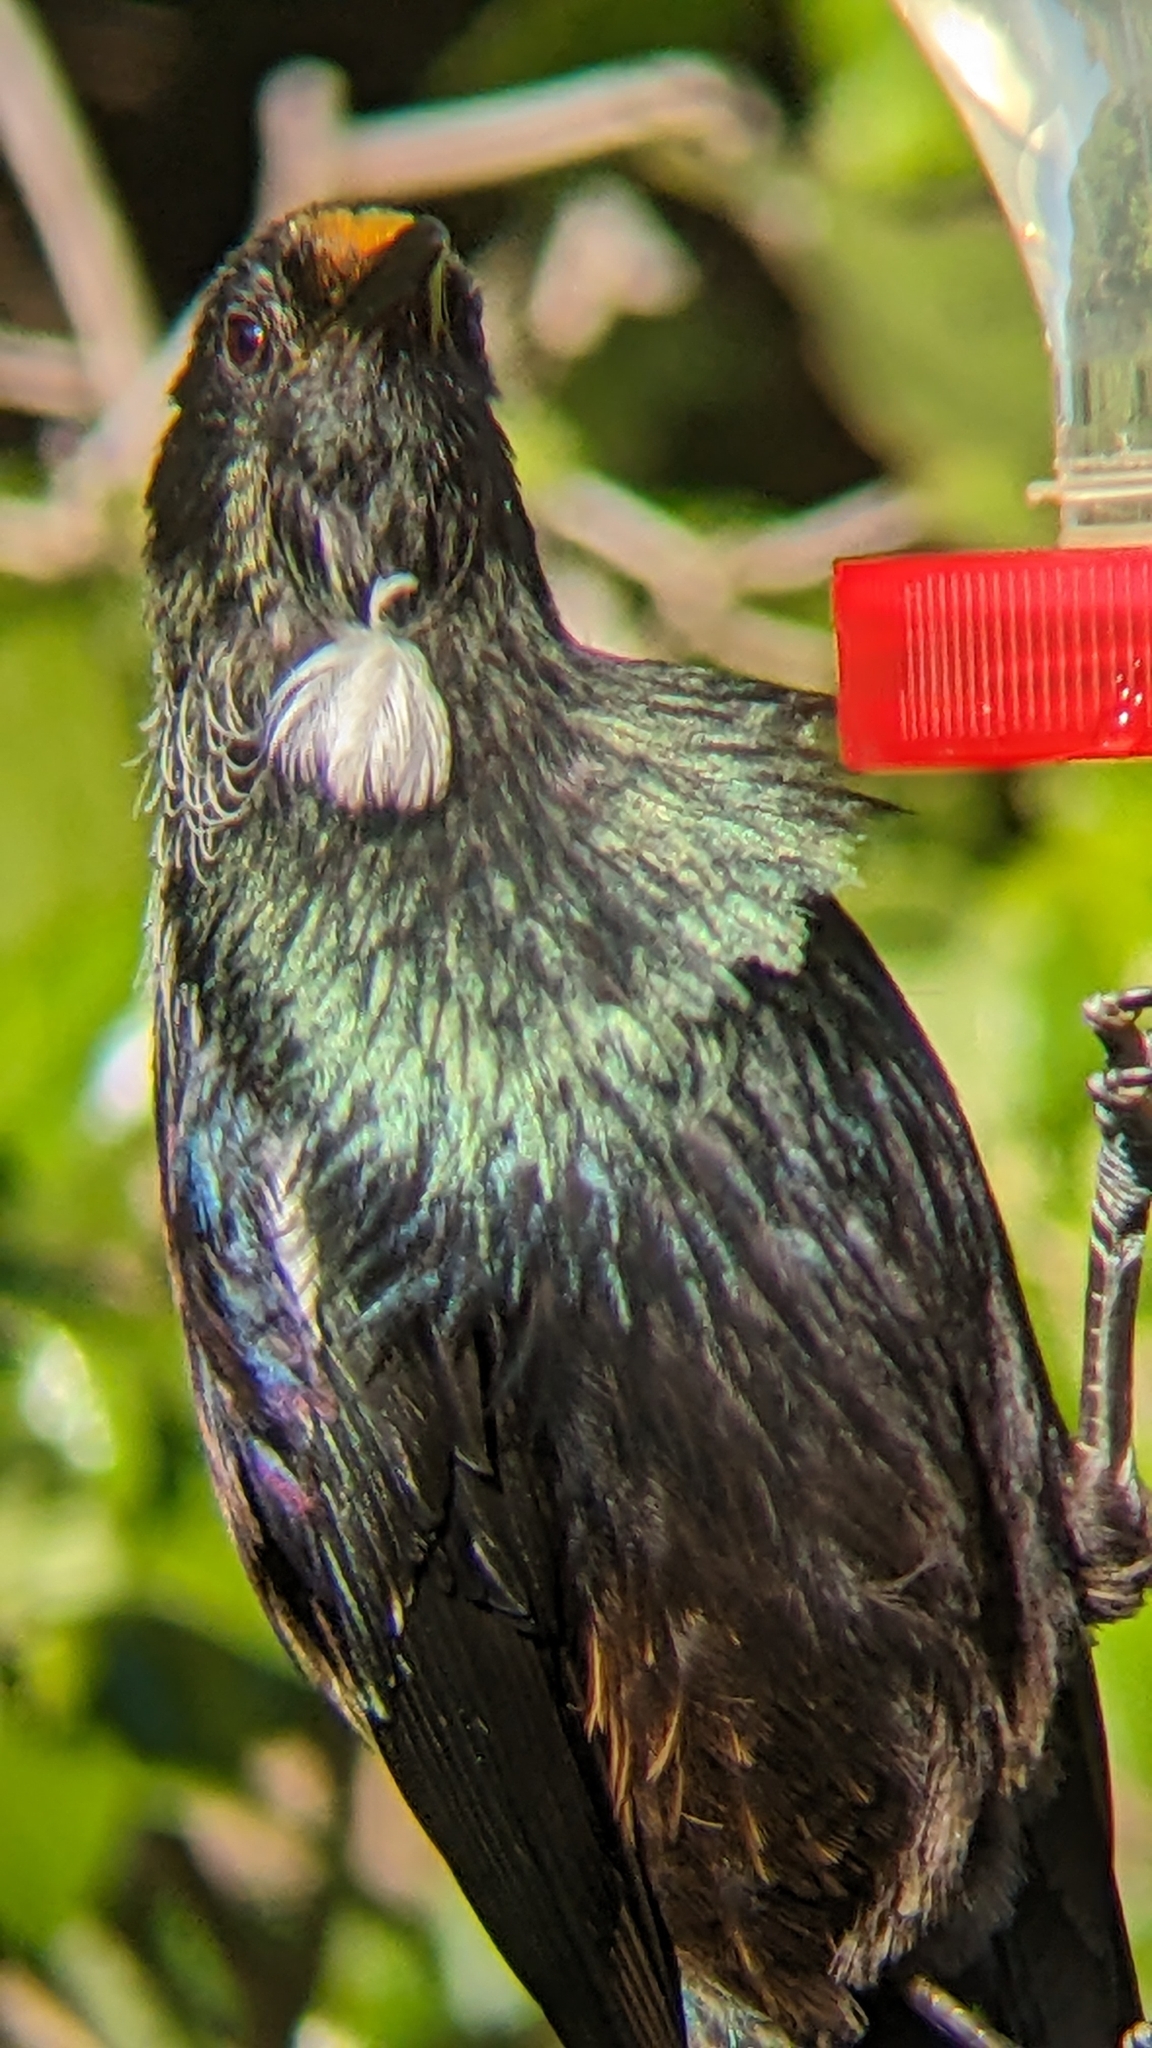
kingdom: Animalia
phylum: Chordata
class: Aves
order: Passeriformes
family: Meliphagidae
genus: Prosthemadera
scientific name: Prosthemadera novaeseelandiae
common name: Tui
